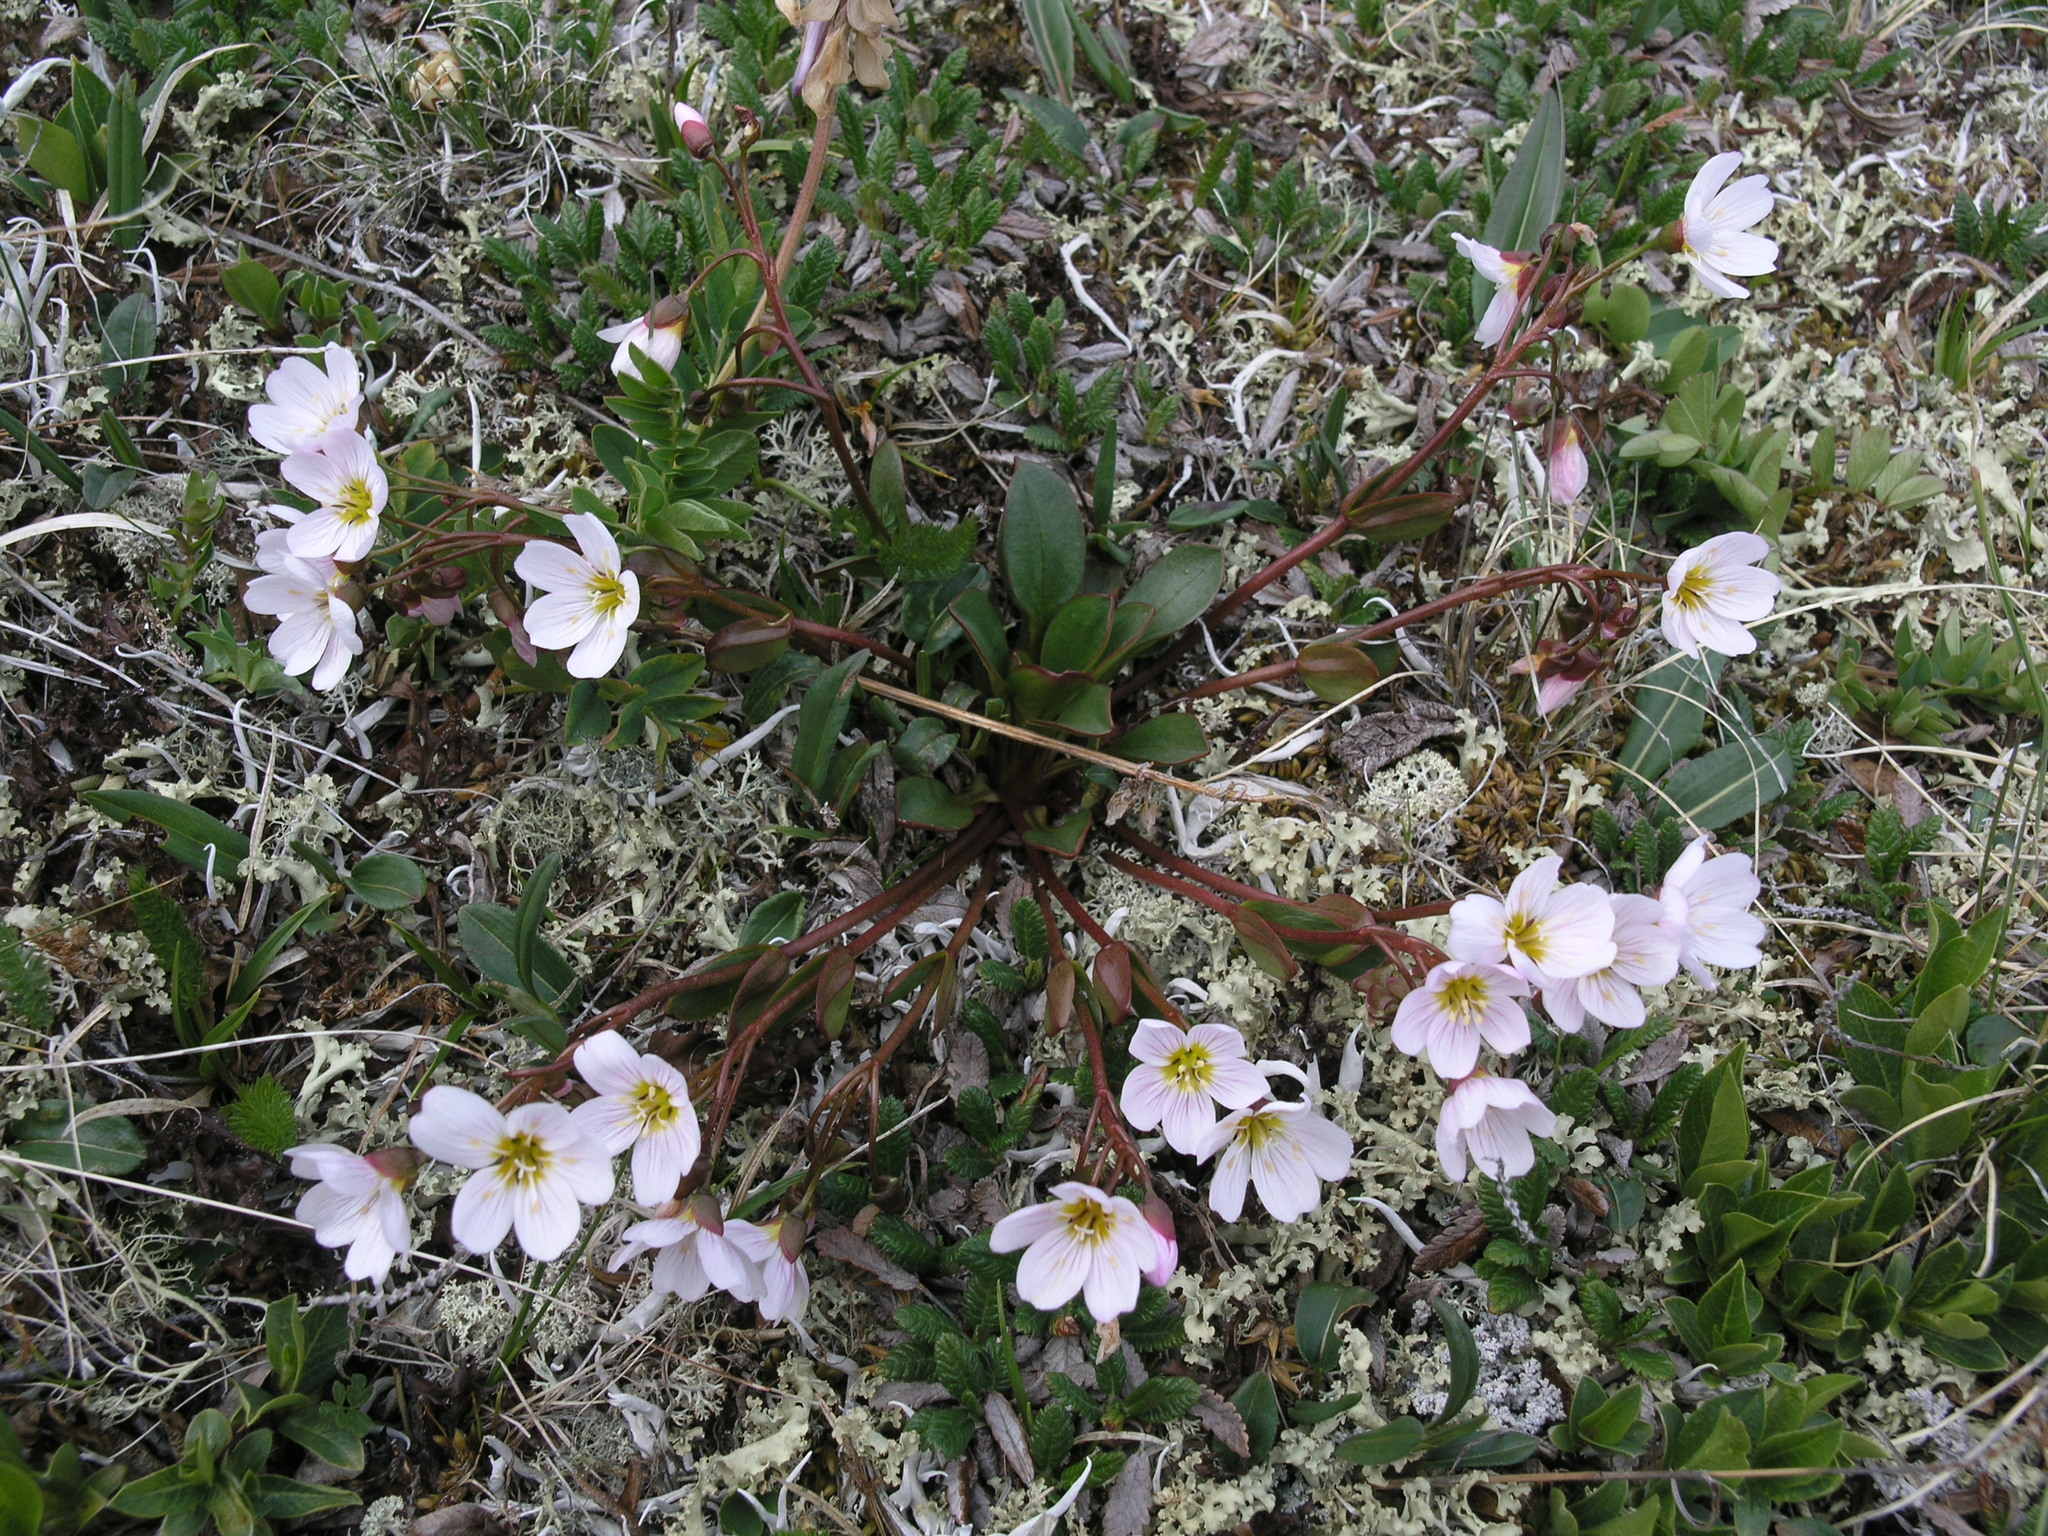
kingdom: Plantae
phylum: Tracheophyta
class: Magnoliopsida
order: Caryophyllales
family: Montiaceae
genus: Claytonia
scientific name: Claytonia joanneana
